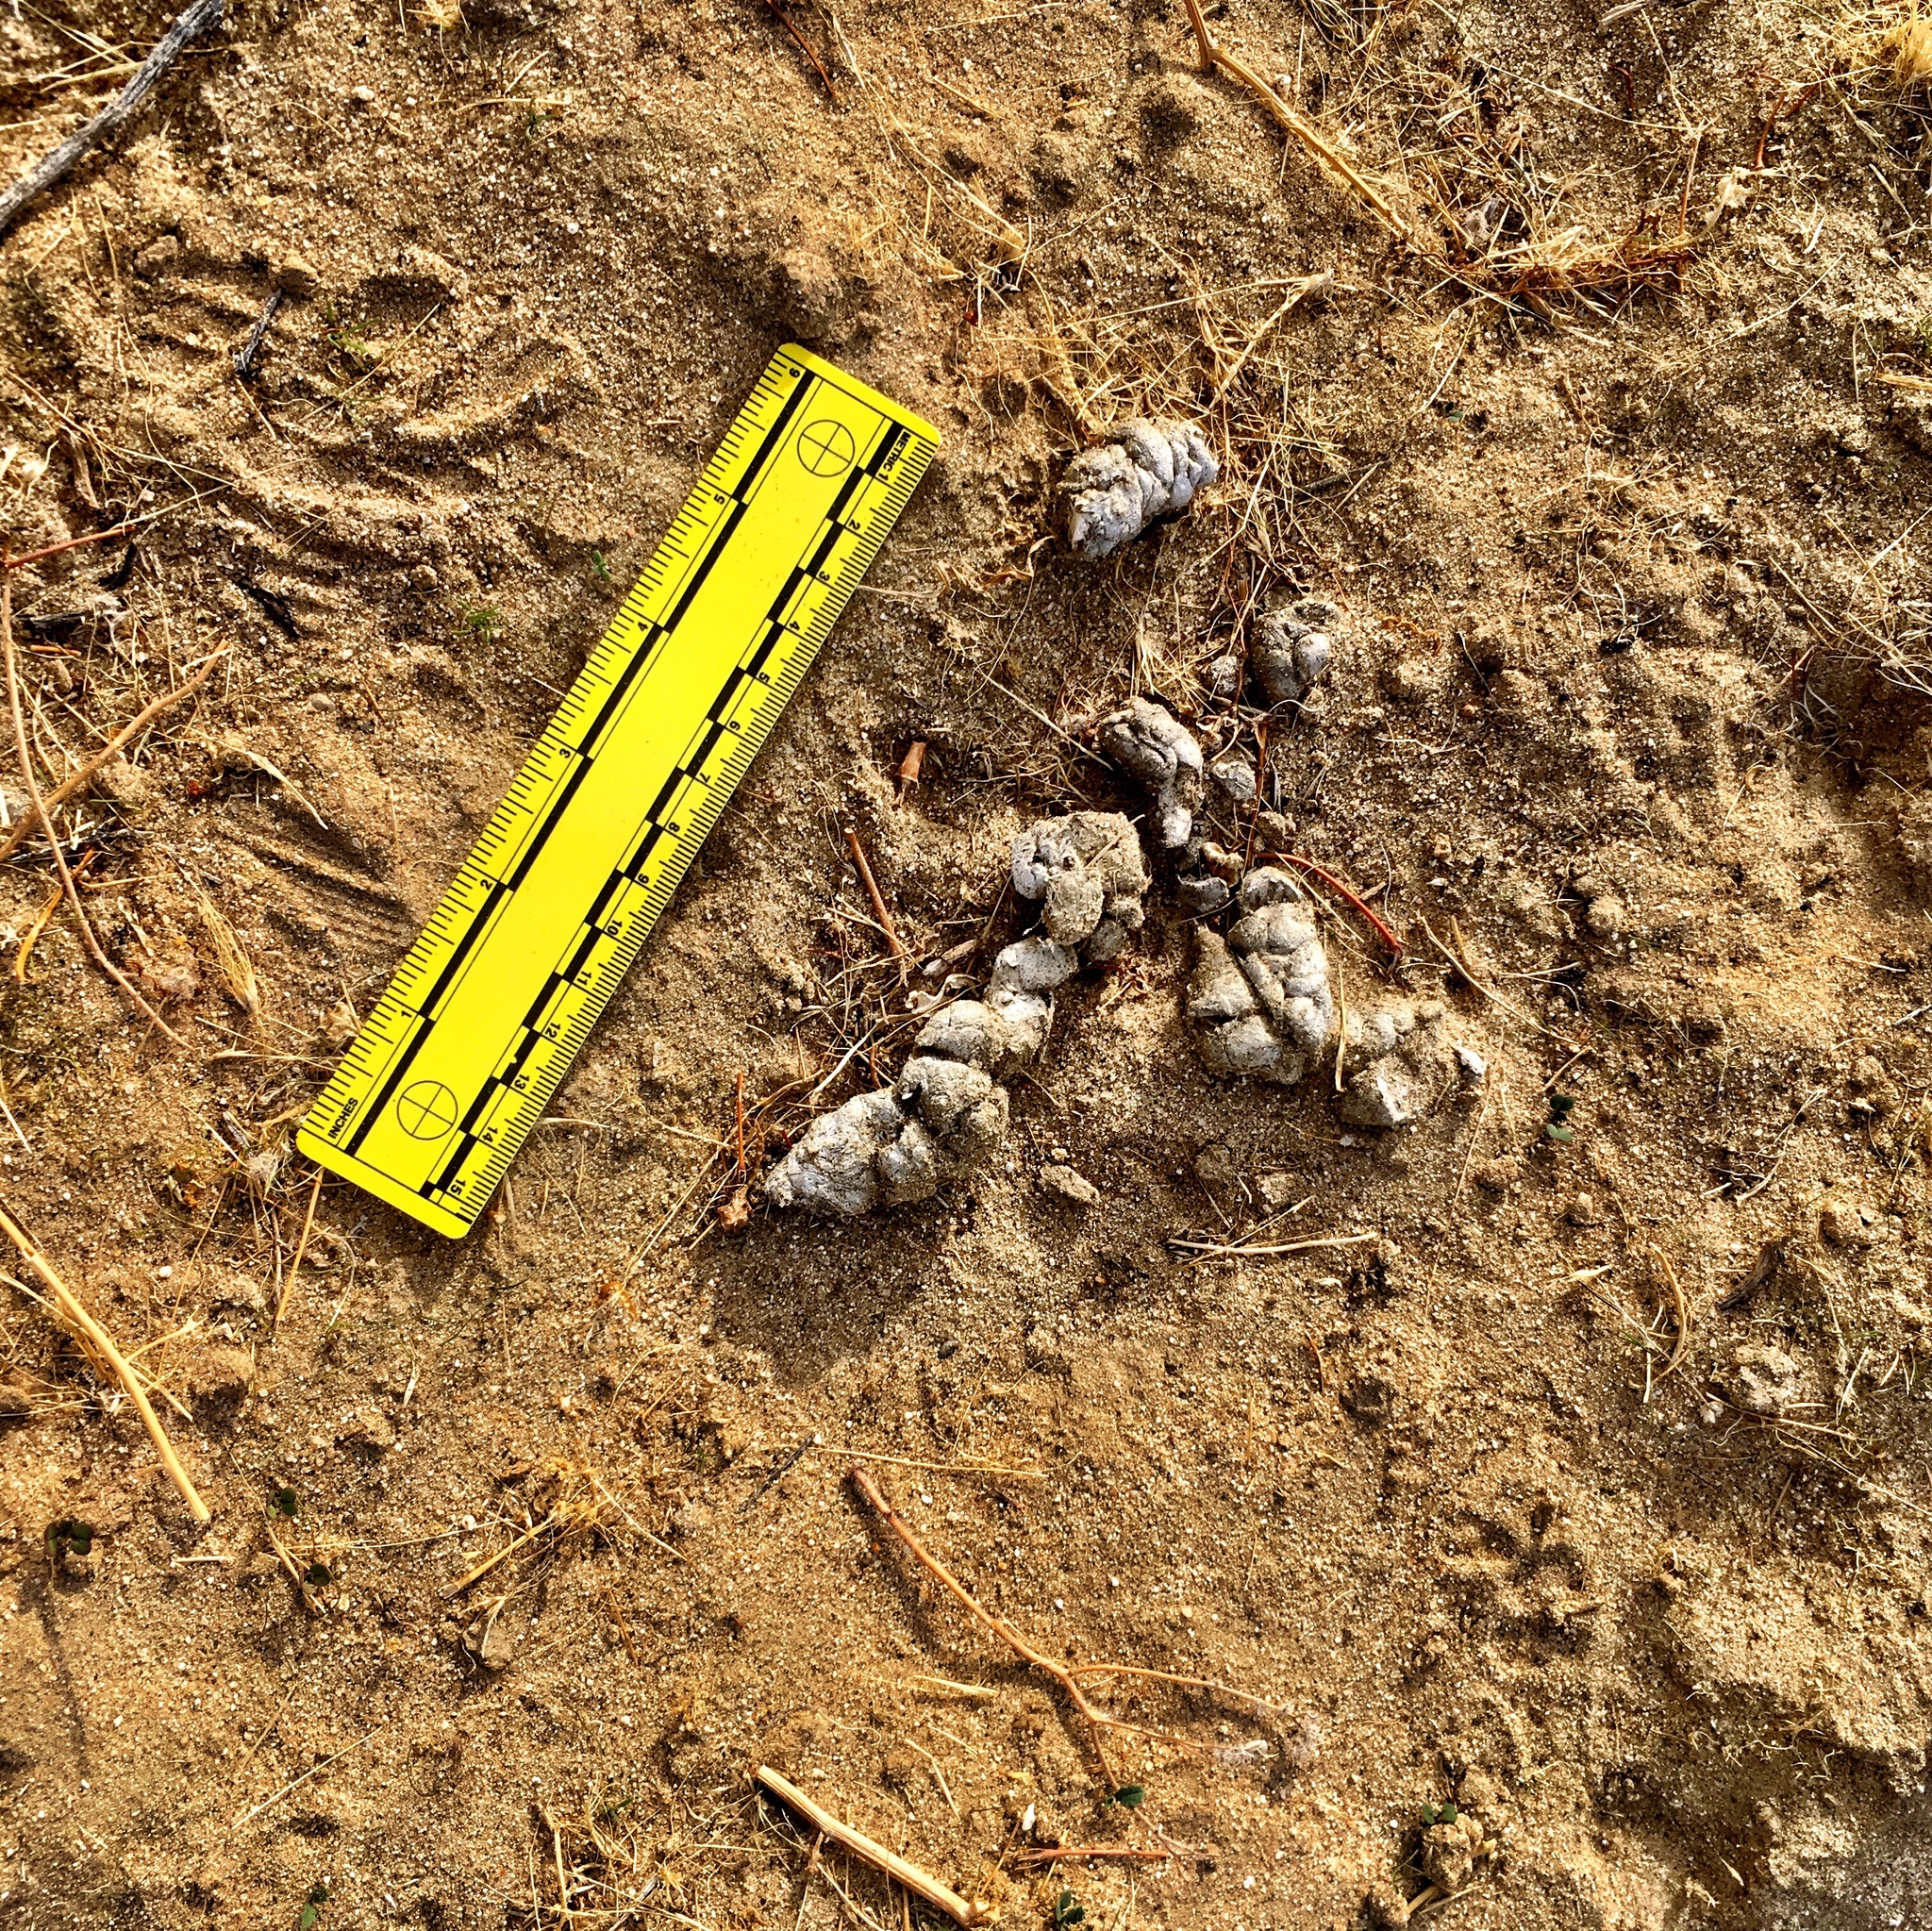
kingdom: Animalia
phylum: Chordata
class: Mammalia
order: Carnivora
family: Canidae
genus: Canis
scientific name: Canis latrans
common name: Coyote
